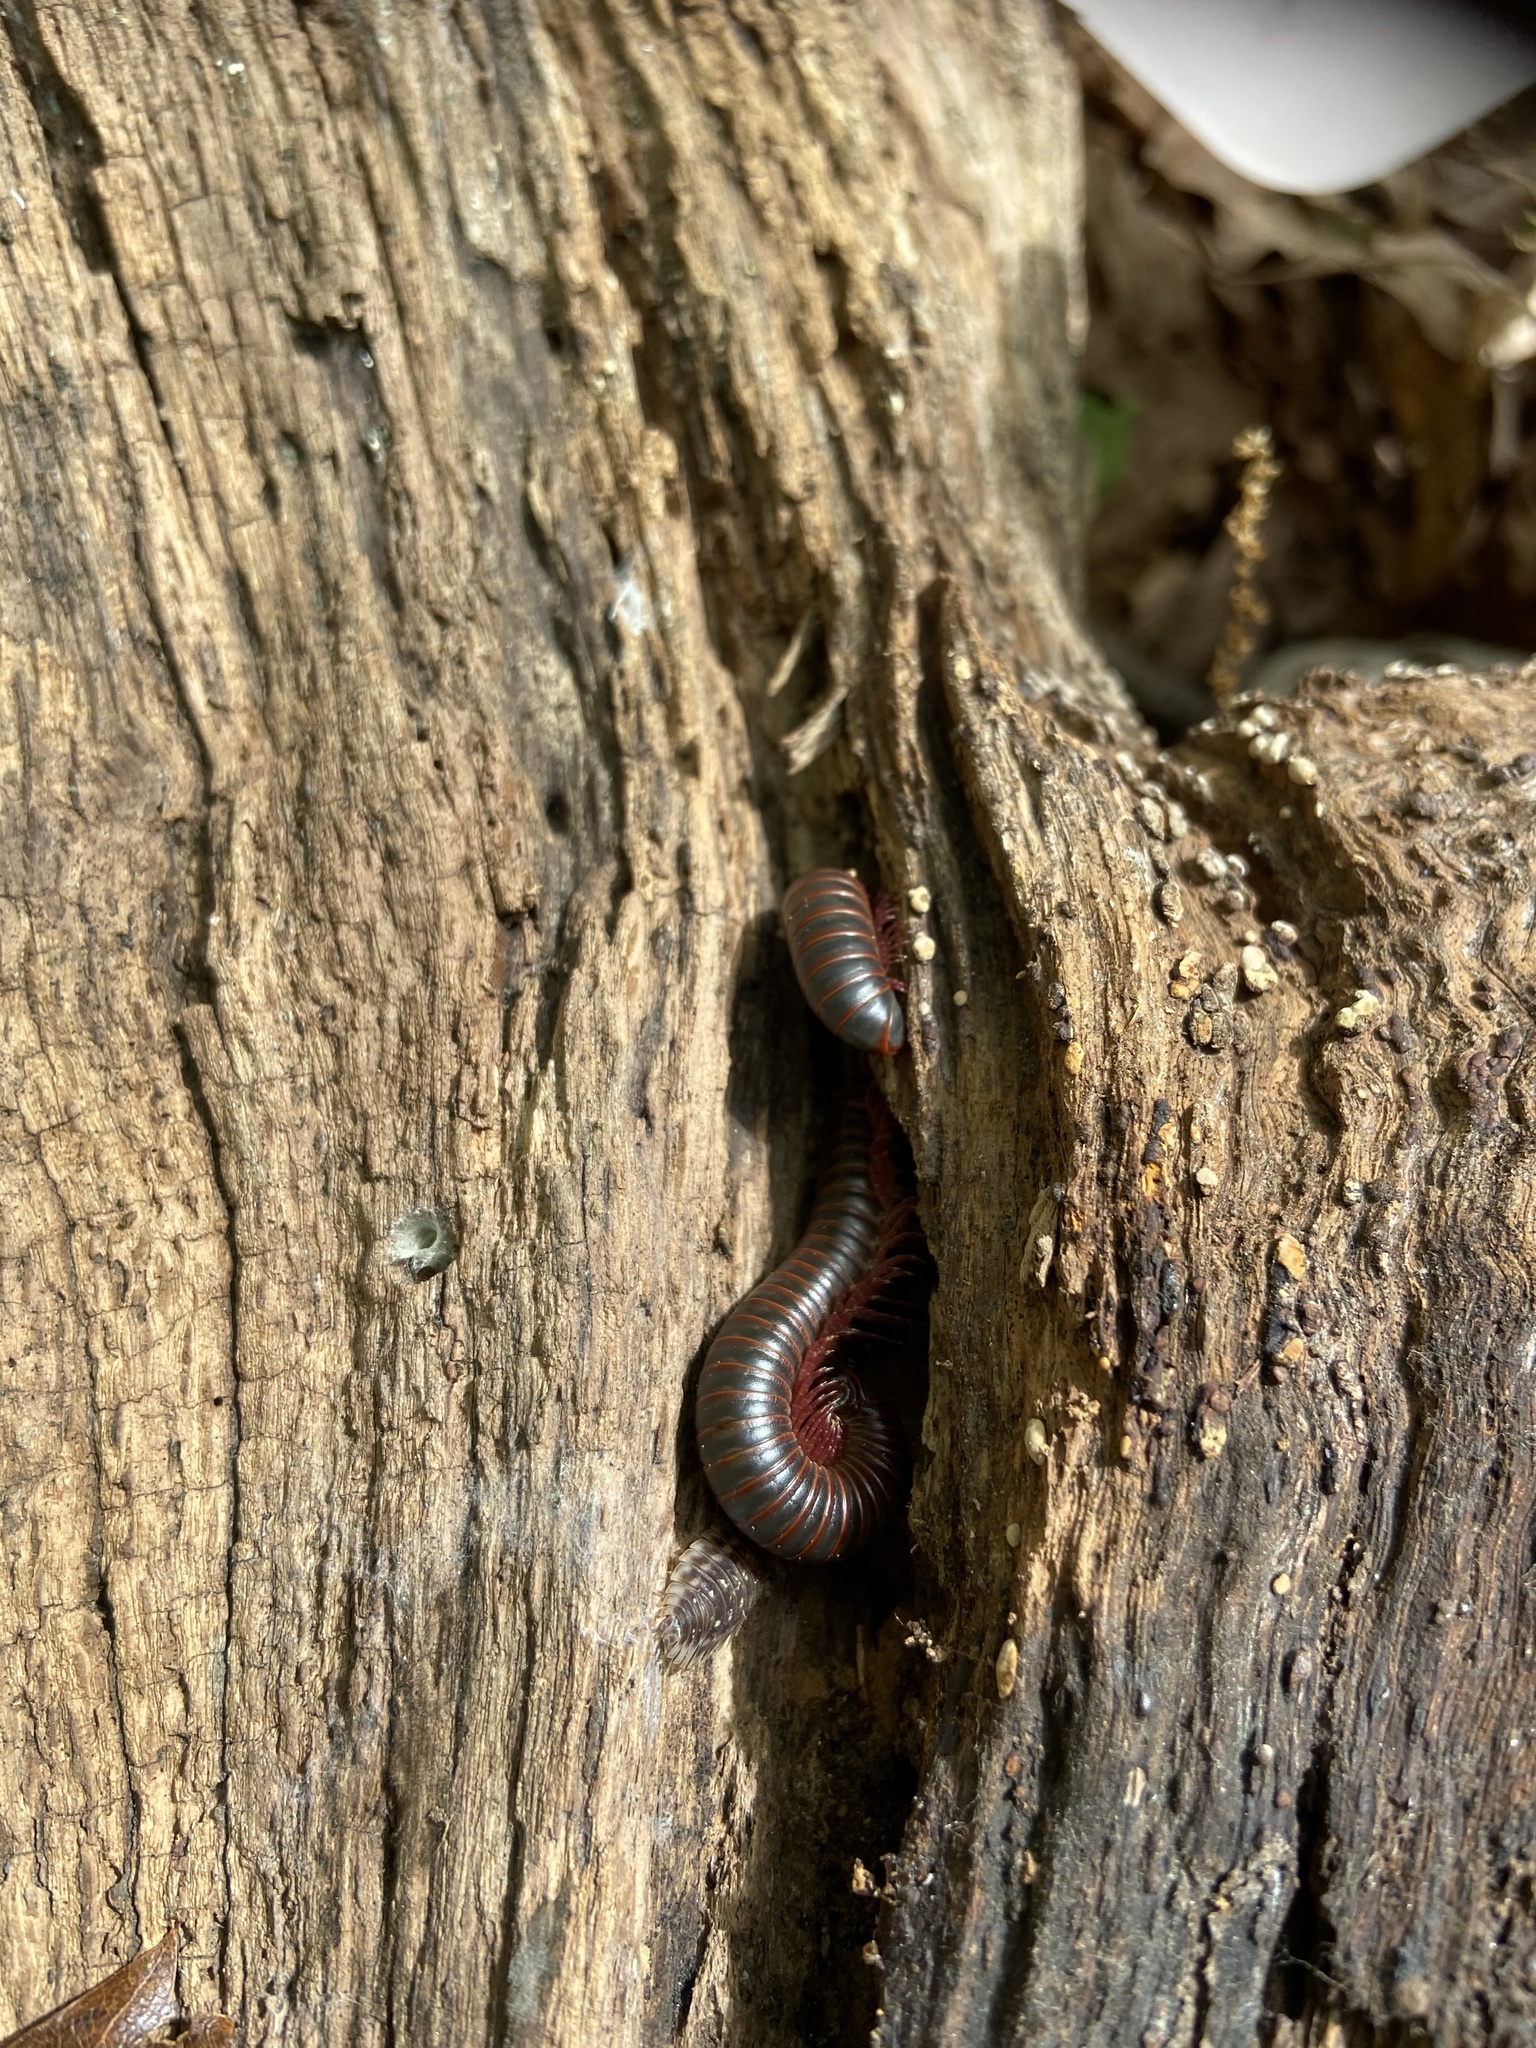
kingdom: Animalia
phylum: Arthropoda
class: Diplopoda
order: Spirobolida
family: Spirobolidae
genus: Narceus
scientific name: Narceus
